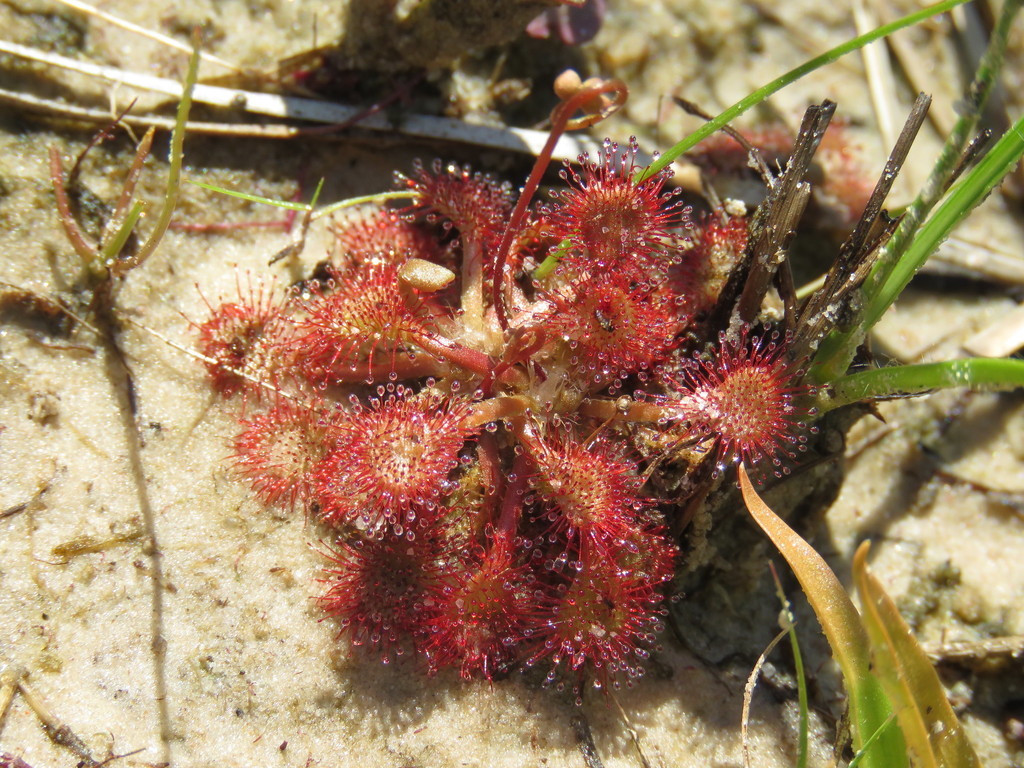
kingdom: Plantae
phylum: Tracheophyta
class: Magnoliopsida
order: Caryophyllales
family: Droseraceae
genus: Drosera
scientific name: Drosera capillaris
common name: Pink sundew
